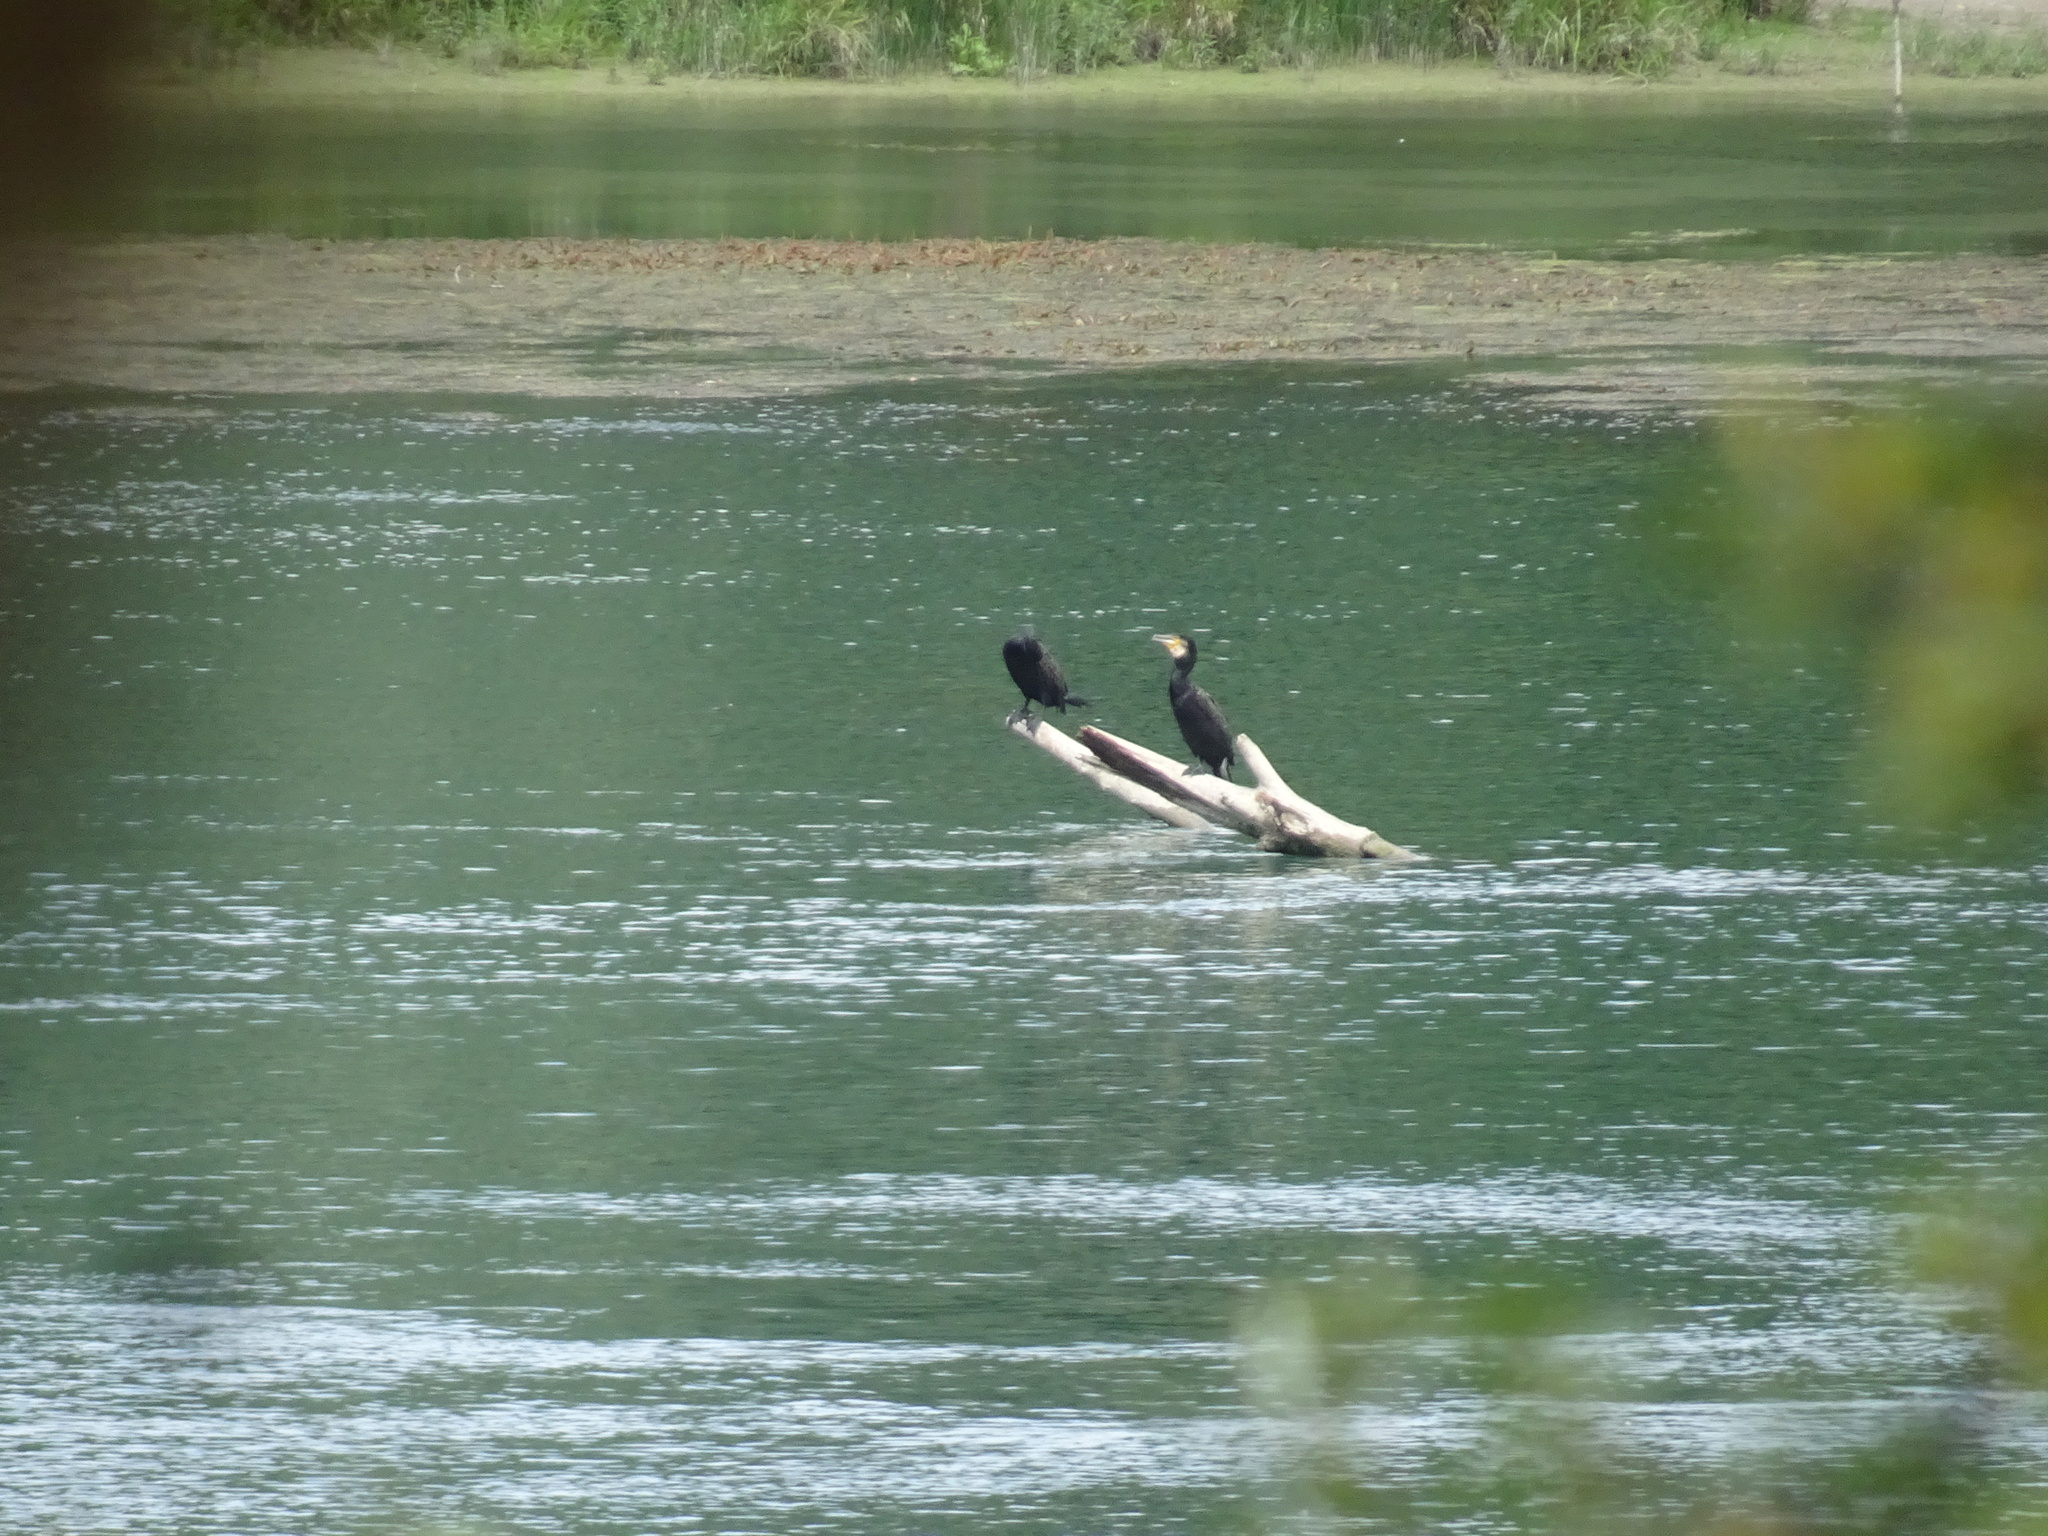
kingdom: Animalia
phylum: Chordata
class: Aves
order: Suliformes
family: Phalacrocoracidae
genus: Phalacrocorax
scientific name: Phalacrocorax carbo
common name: Great cormorant
